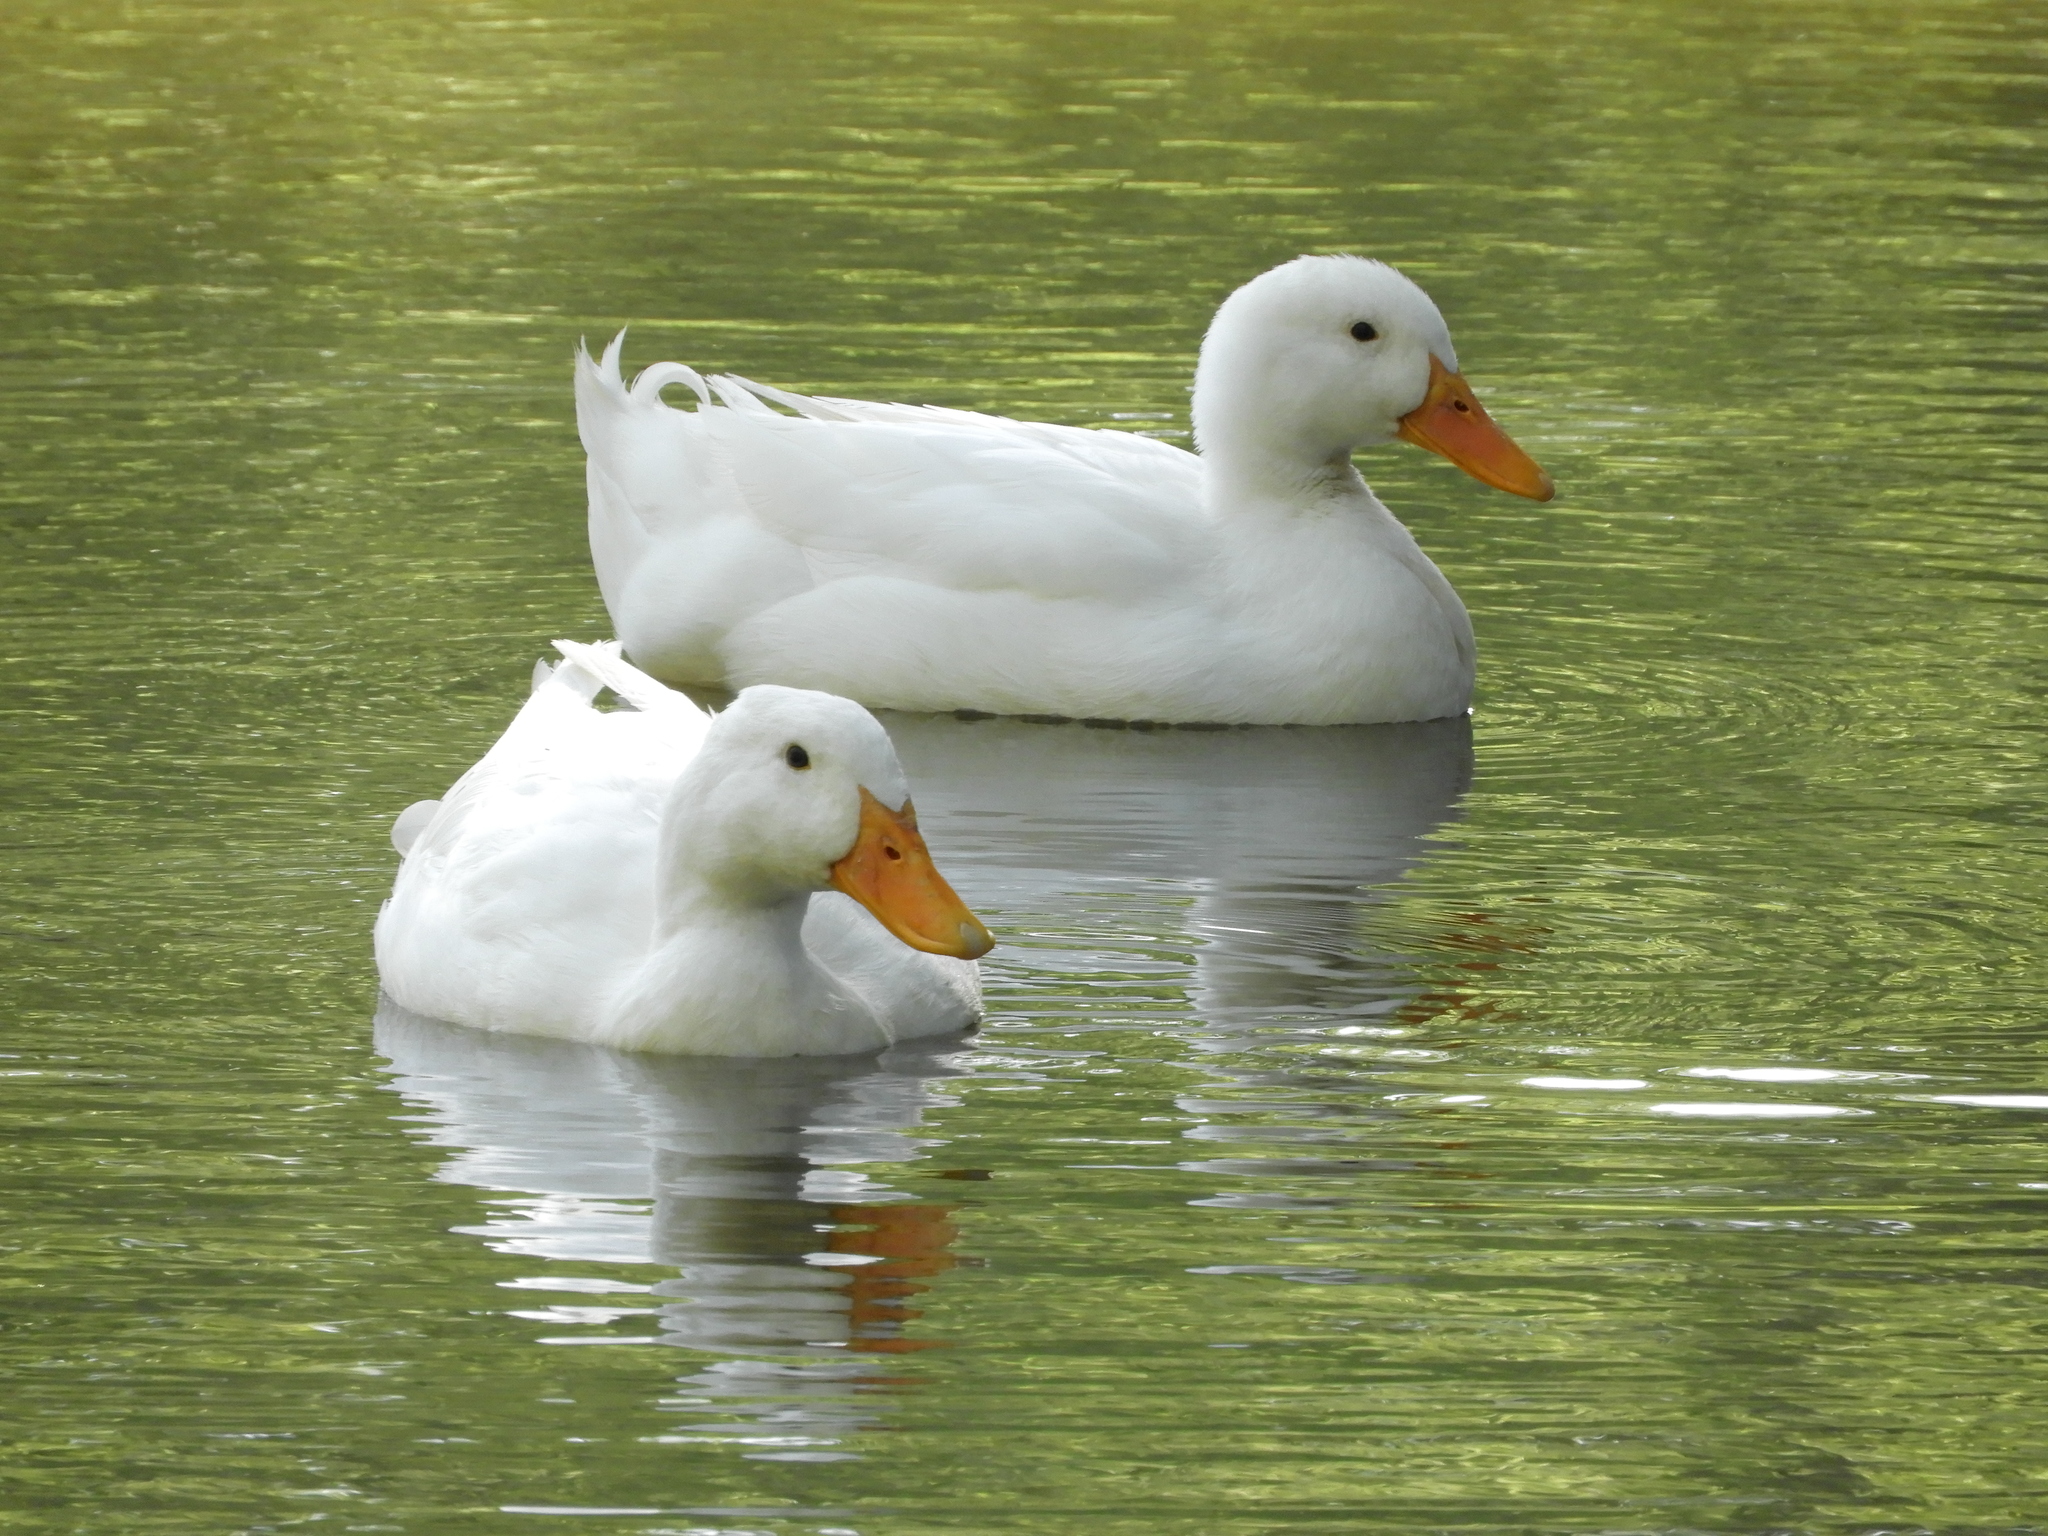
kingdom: Animalia
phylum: Chordata
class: Aves
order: Anseriformes
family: Anatidae
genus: Anas
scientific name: Anas platyrhynchos
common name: Mallard
